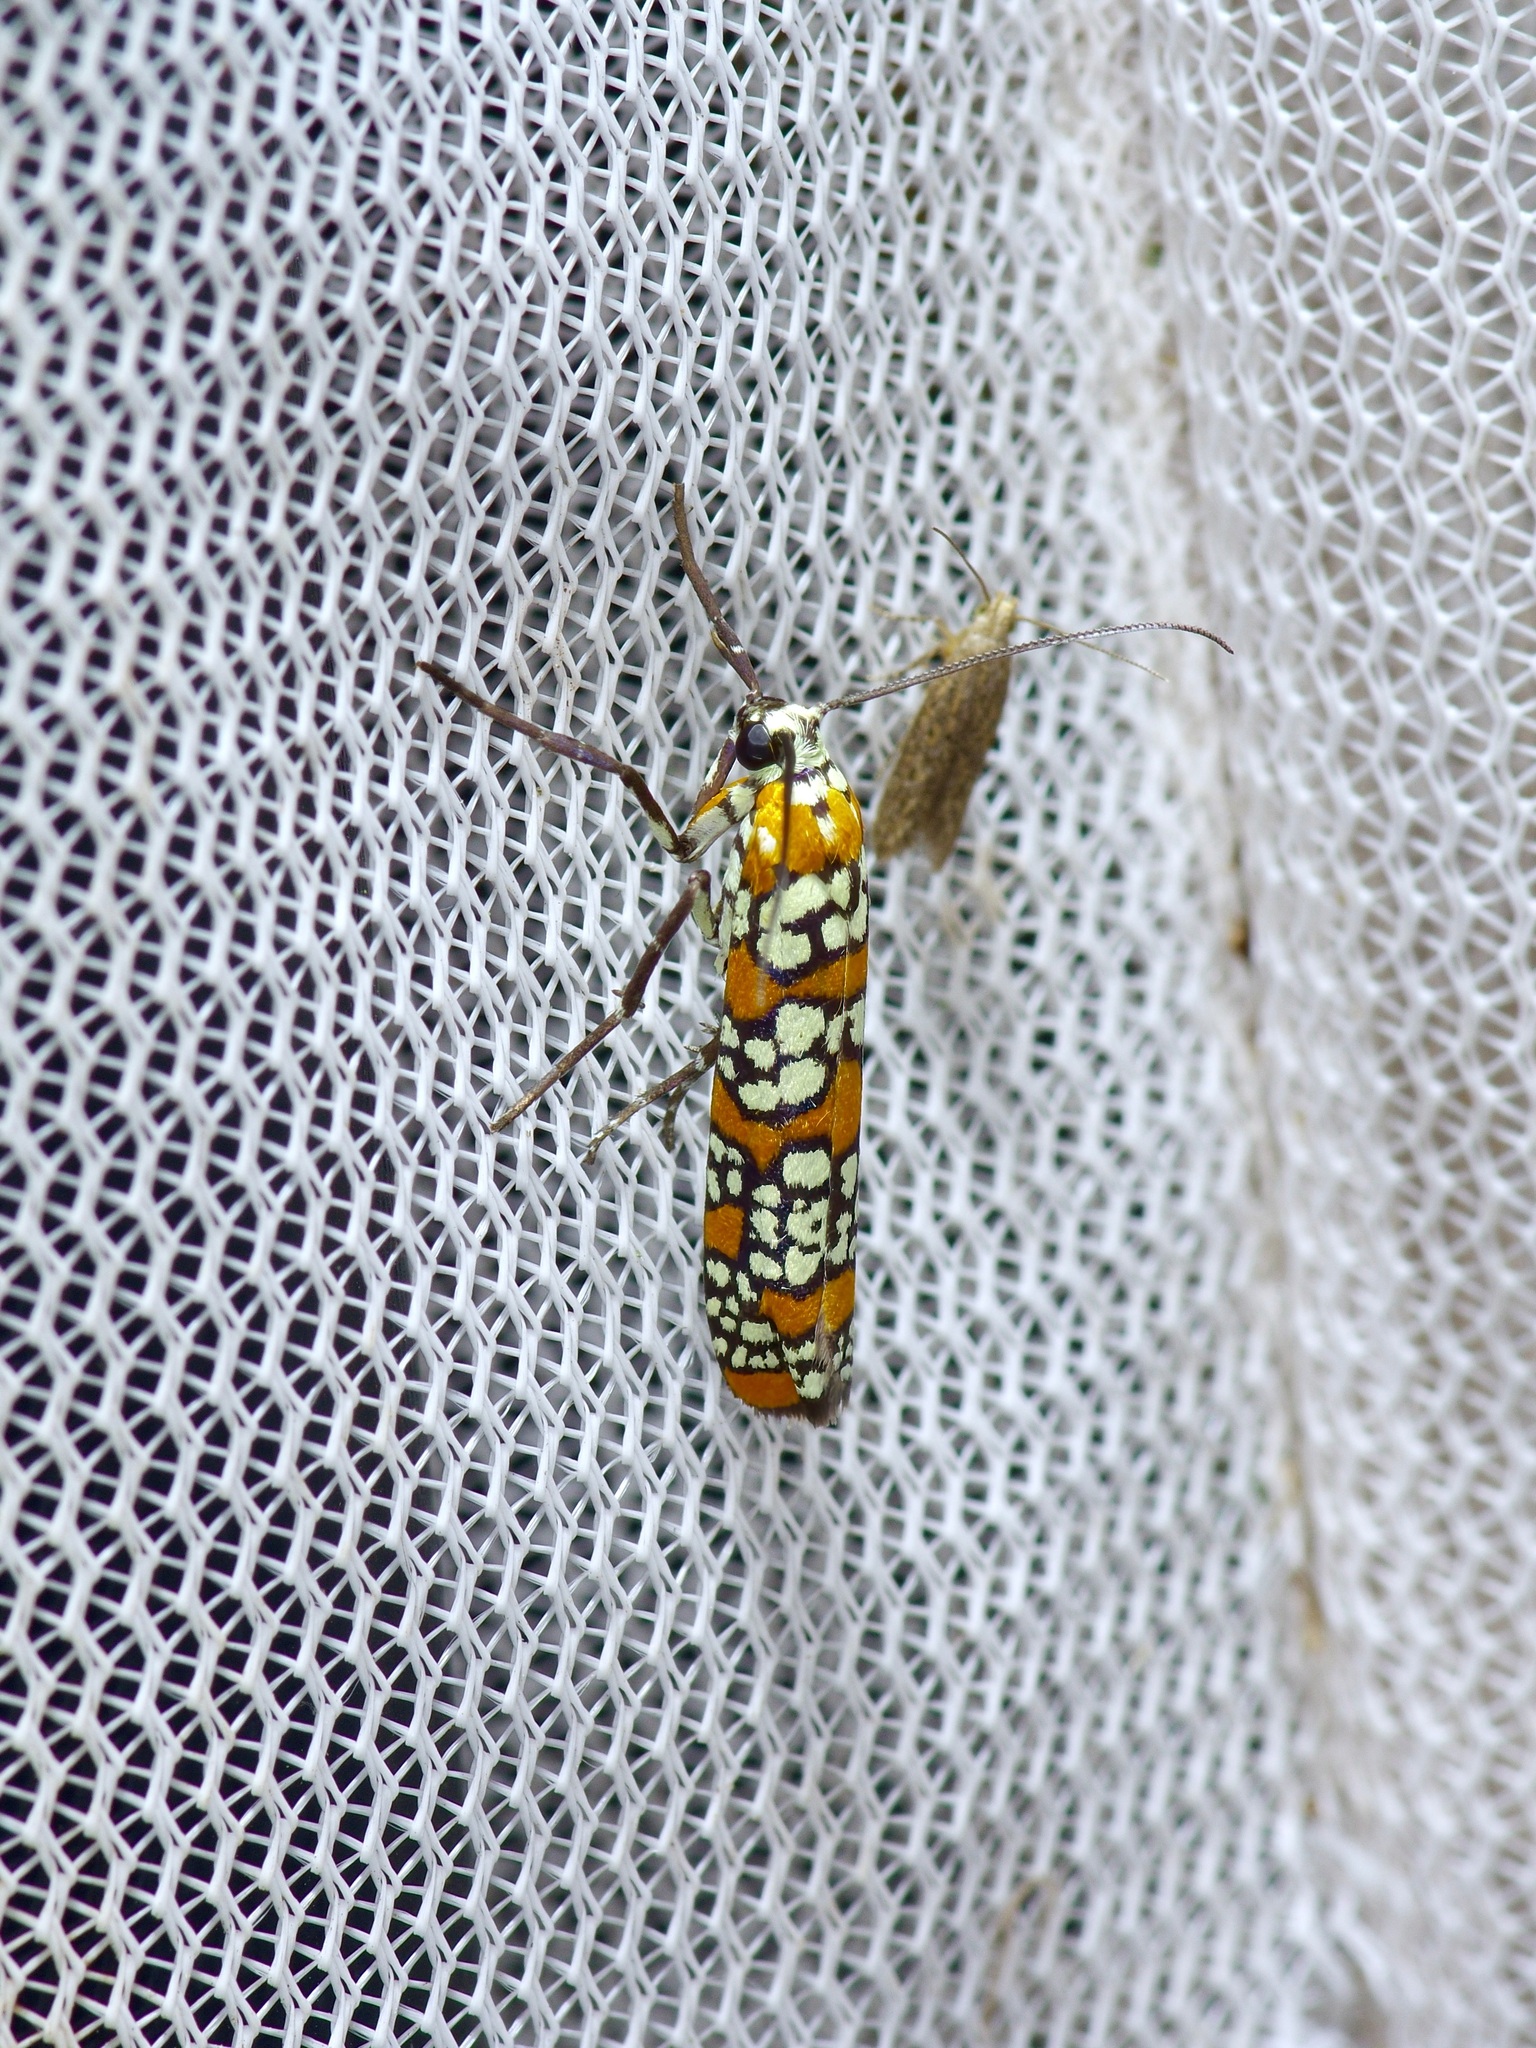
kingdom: Animalia
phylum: Arthropoda
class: Insecta
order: Lepidoptera
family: Attevidae
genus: Atteva
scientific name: Atteva punctella
